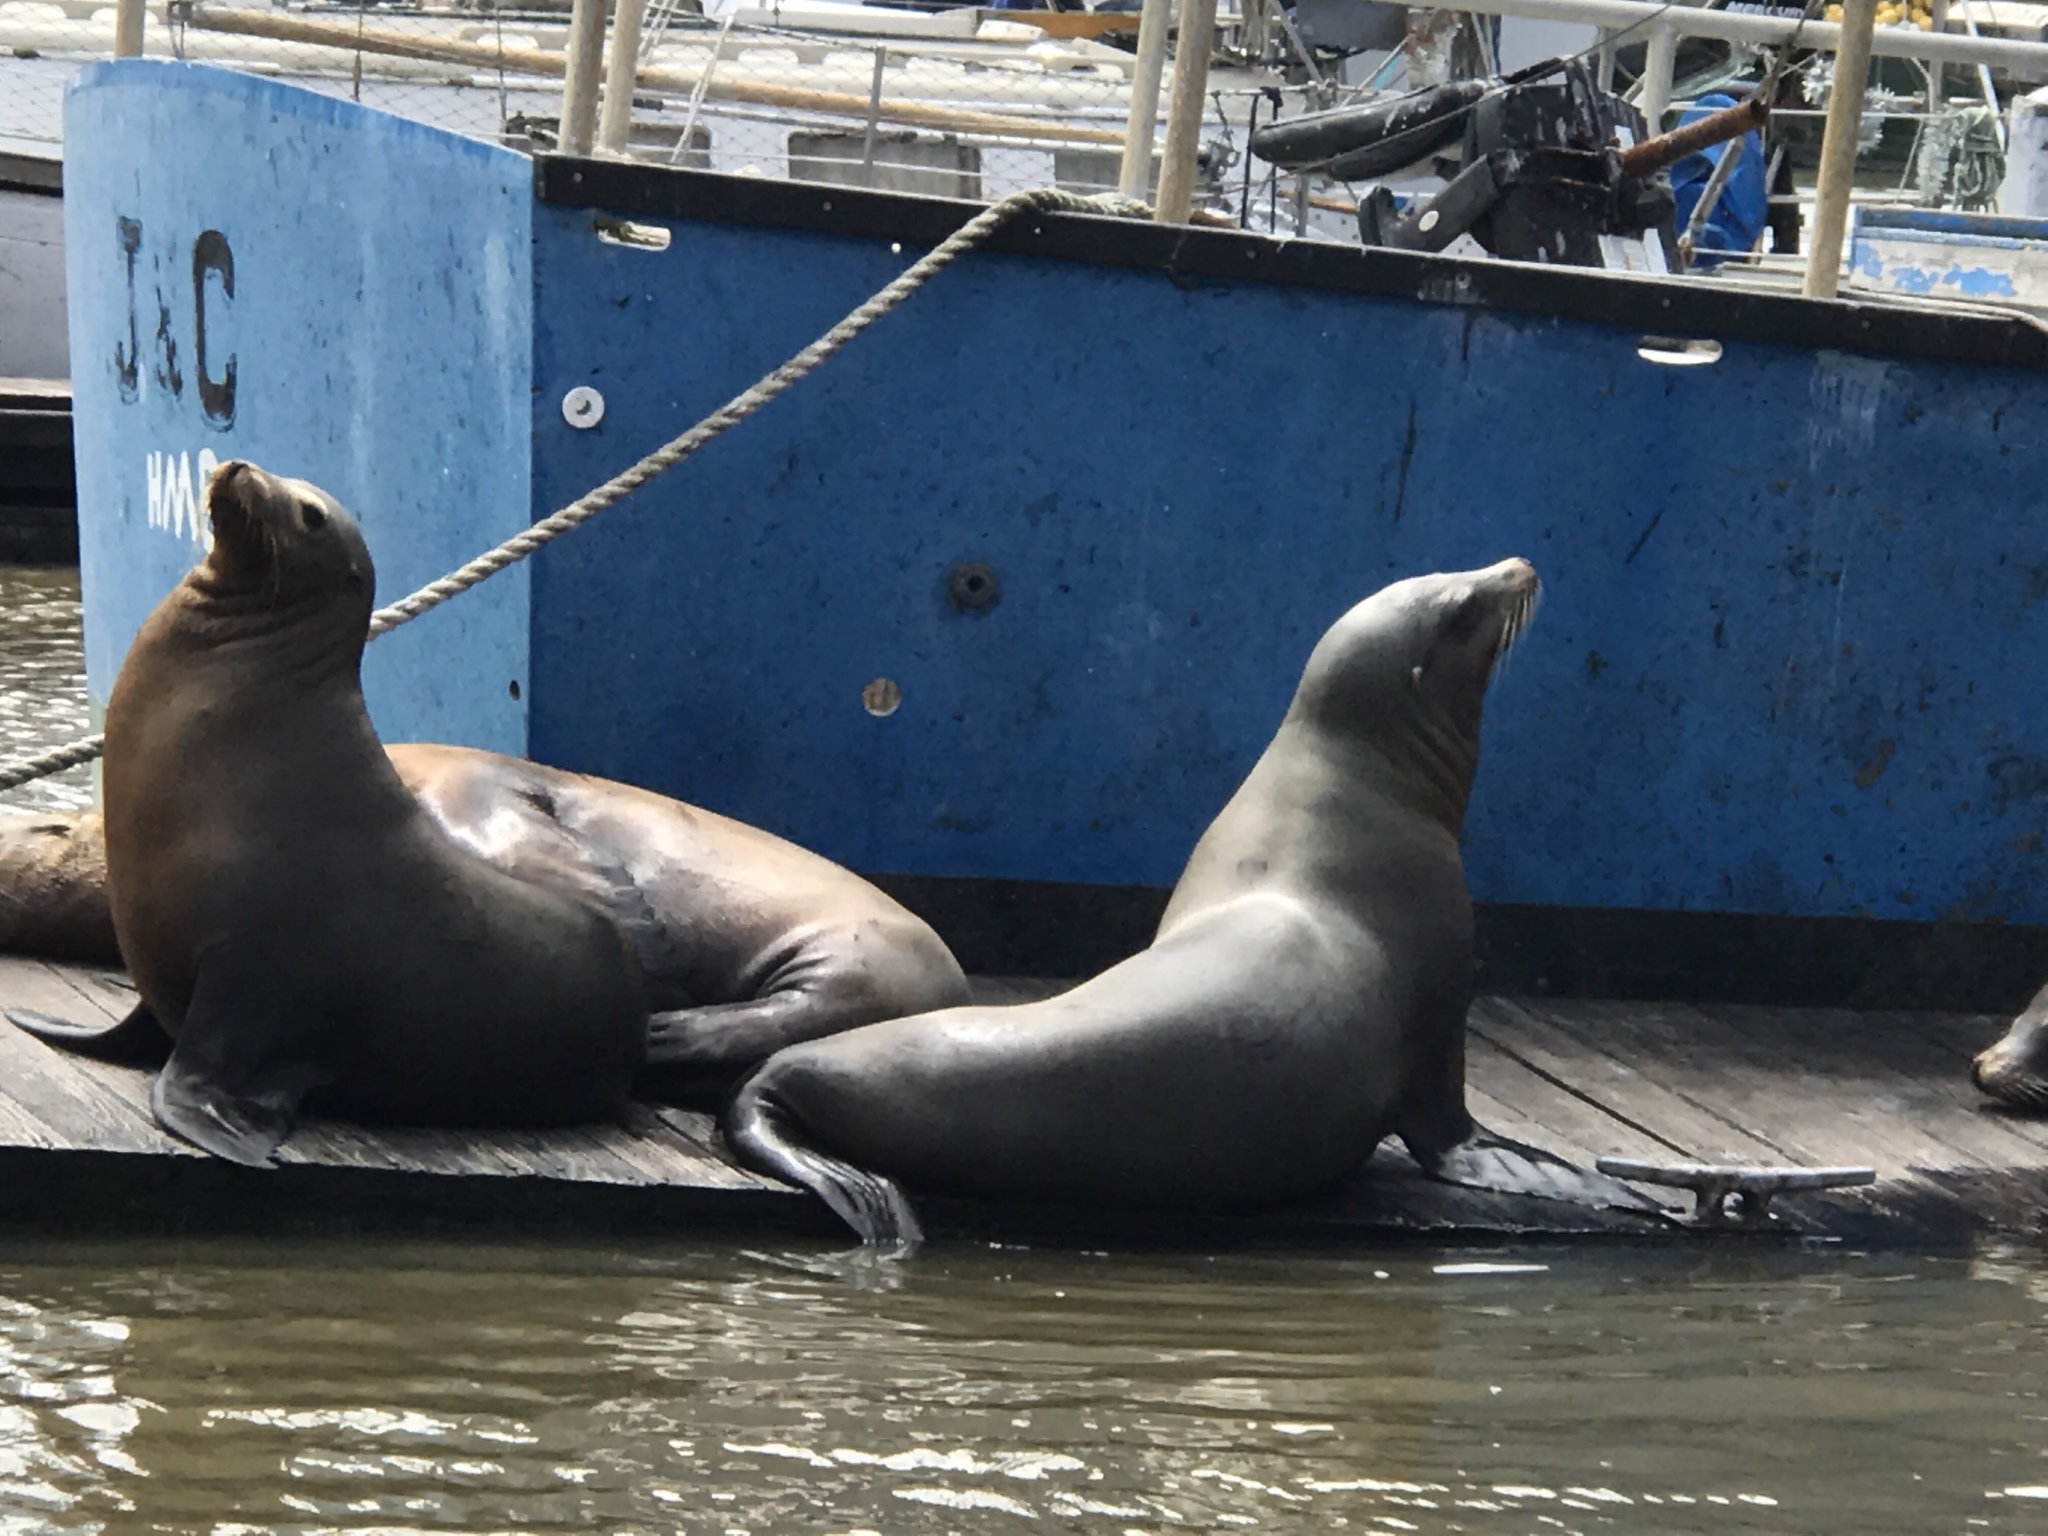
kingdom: Animalia
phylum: Chordata
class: Mammalia
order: Carnivora
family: Otariidae
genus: Zalophus
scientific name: Zalophus californianus
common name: California sea lion
